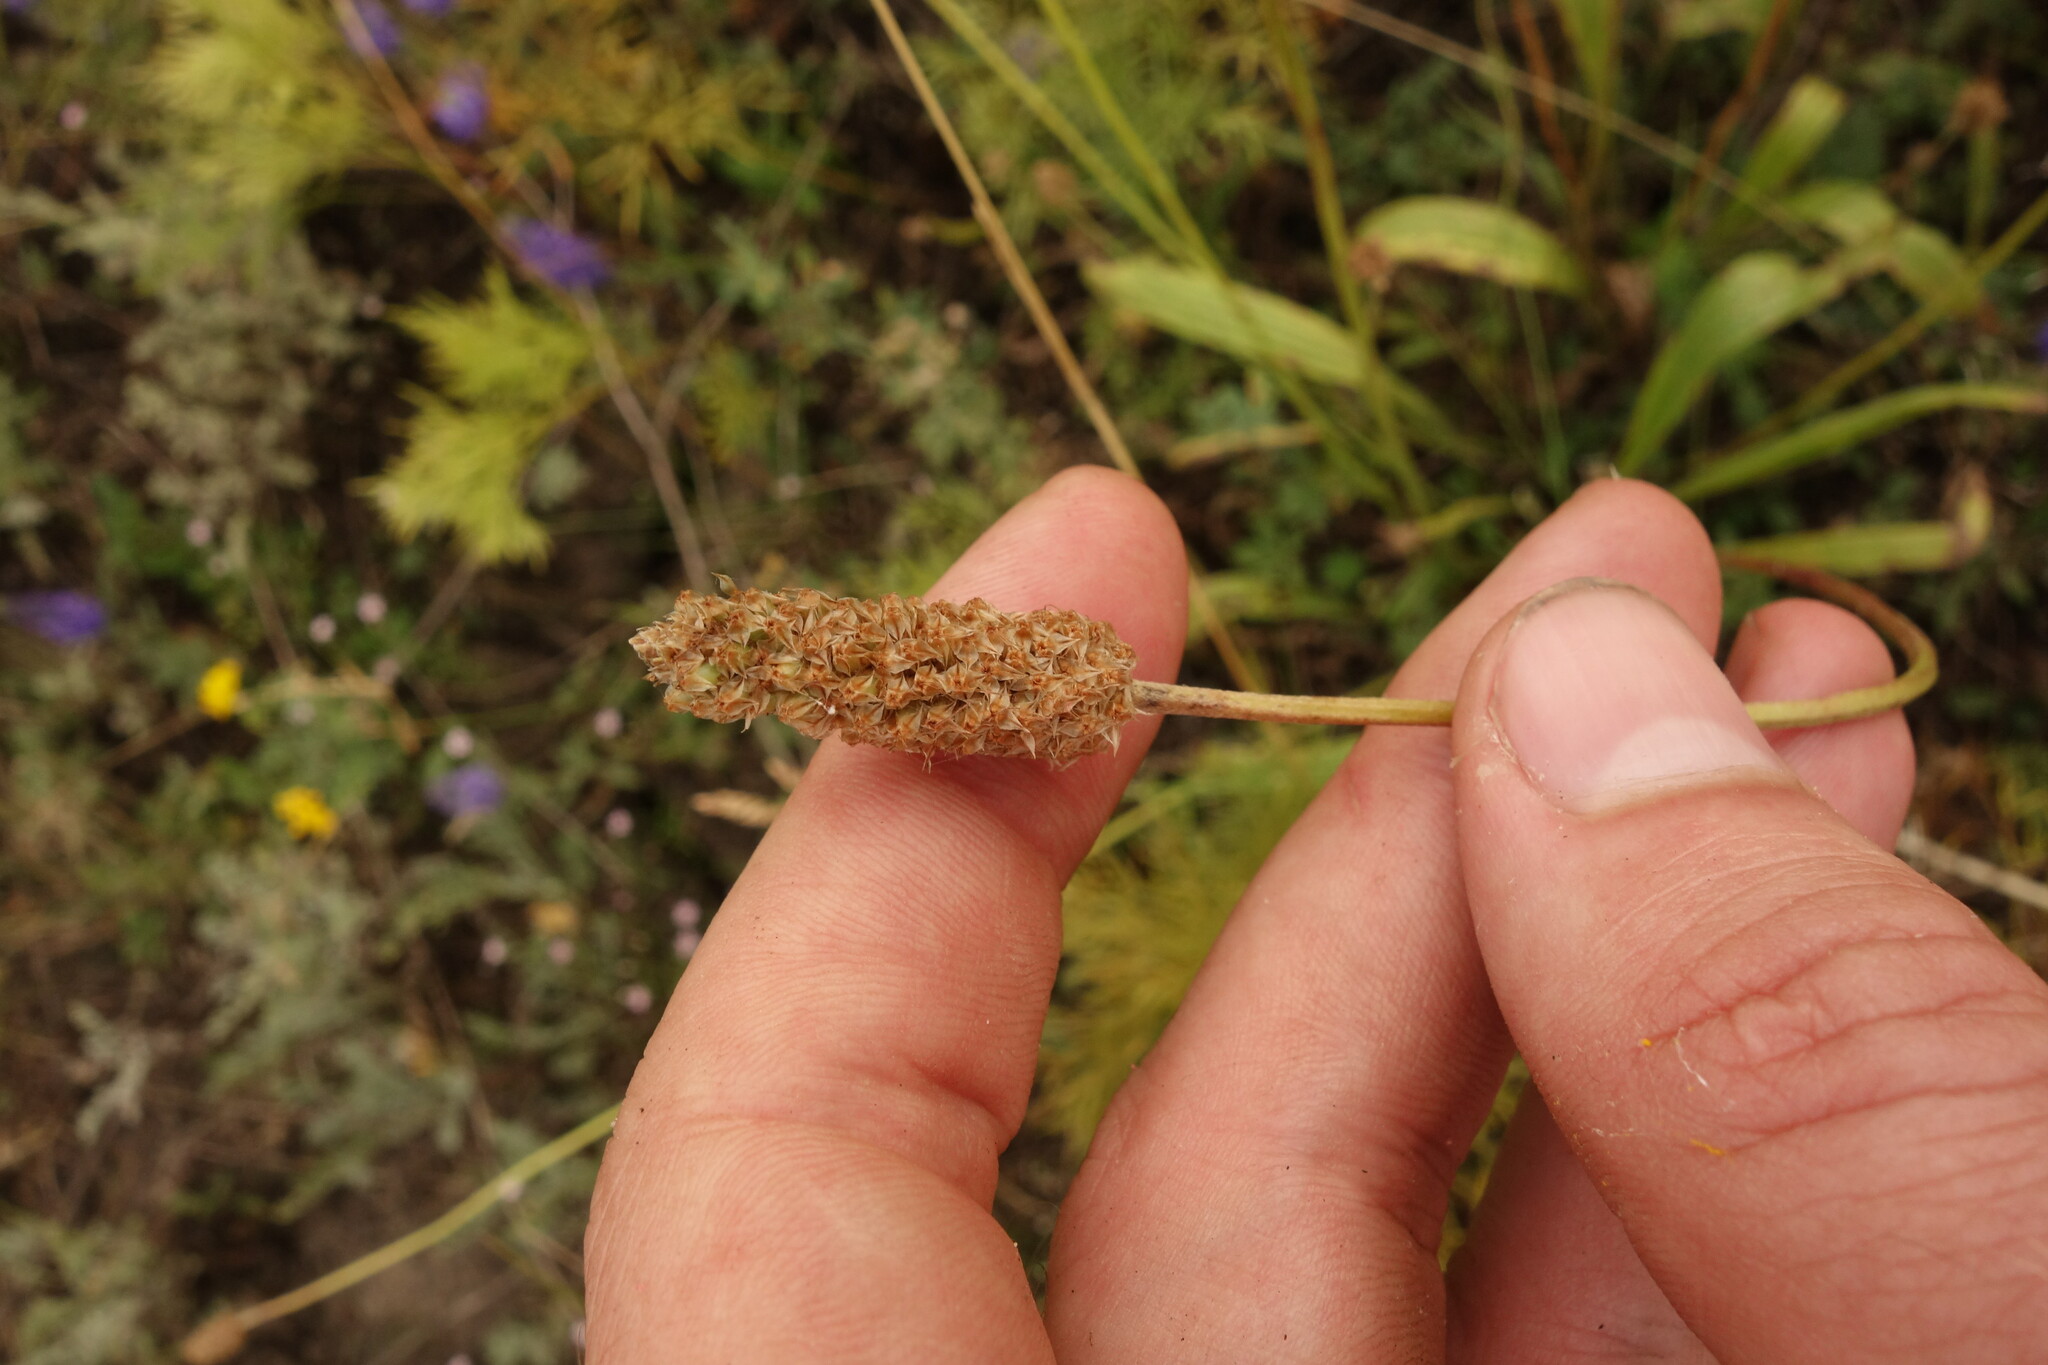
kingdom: Plantae
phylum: Tracheophyta
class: Magnoliopsida
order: Lamiales
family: Plantaginaceae
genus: Plantago
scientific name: Plantago lanceolata
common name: Ribwort plantain
